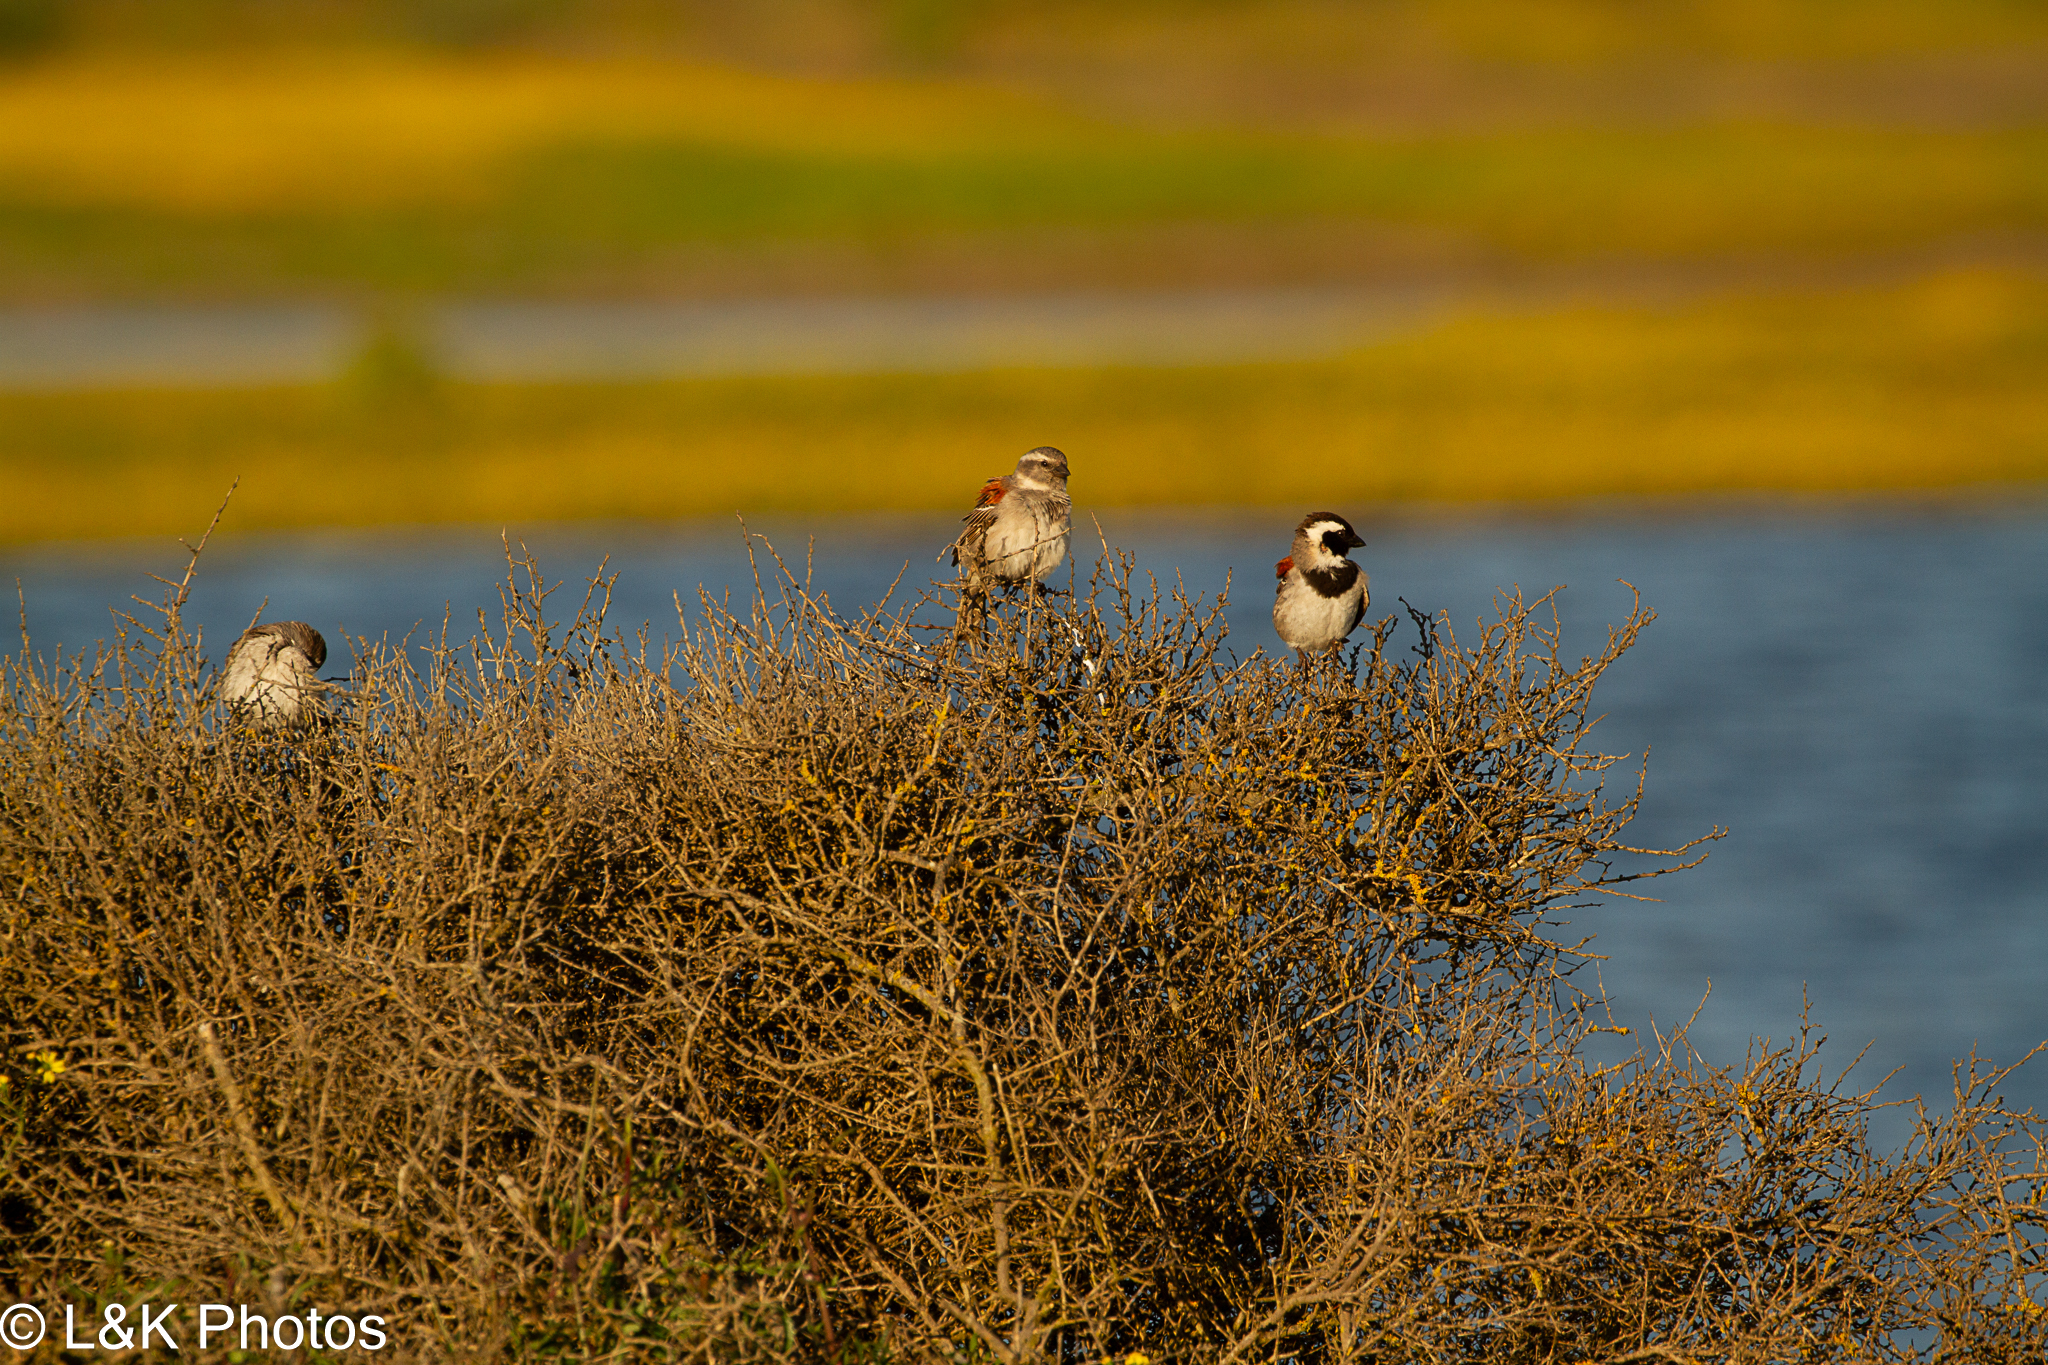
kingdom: Animalia
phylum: Chordata
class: Aves
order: Passeriformes
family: Passeridae
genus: Passer
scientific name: Passer melanurus
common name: Cape sparrow
